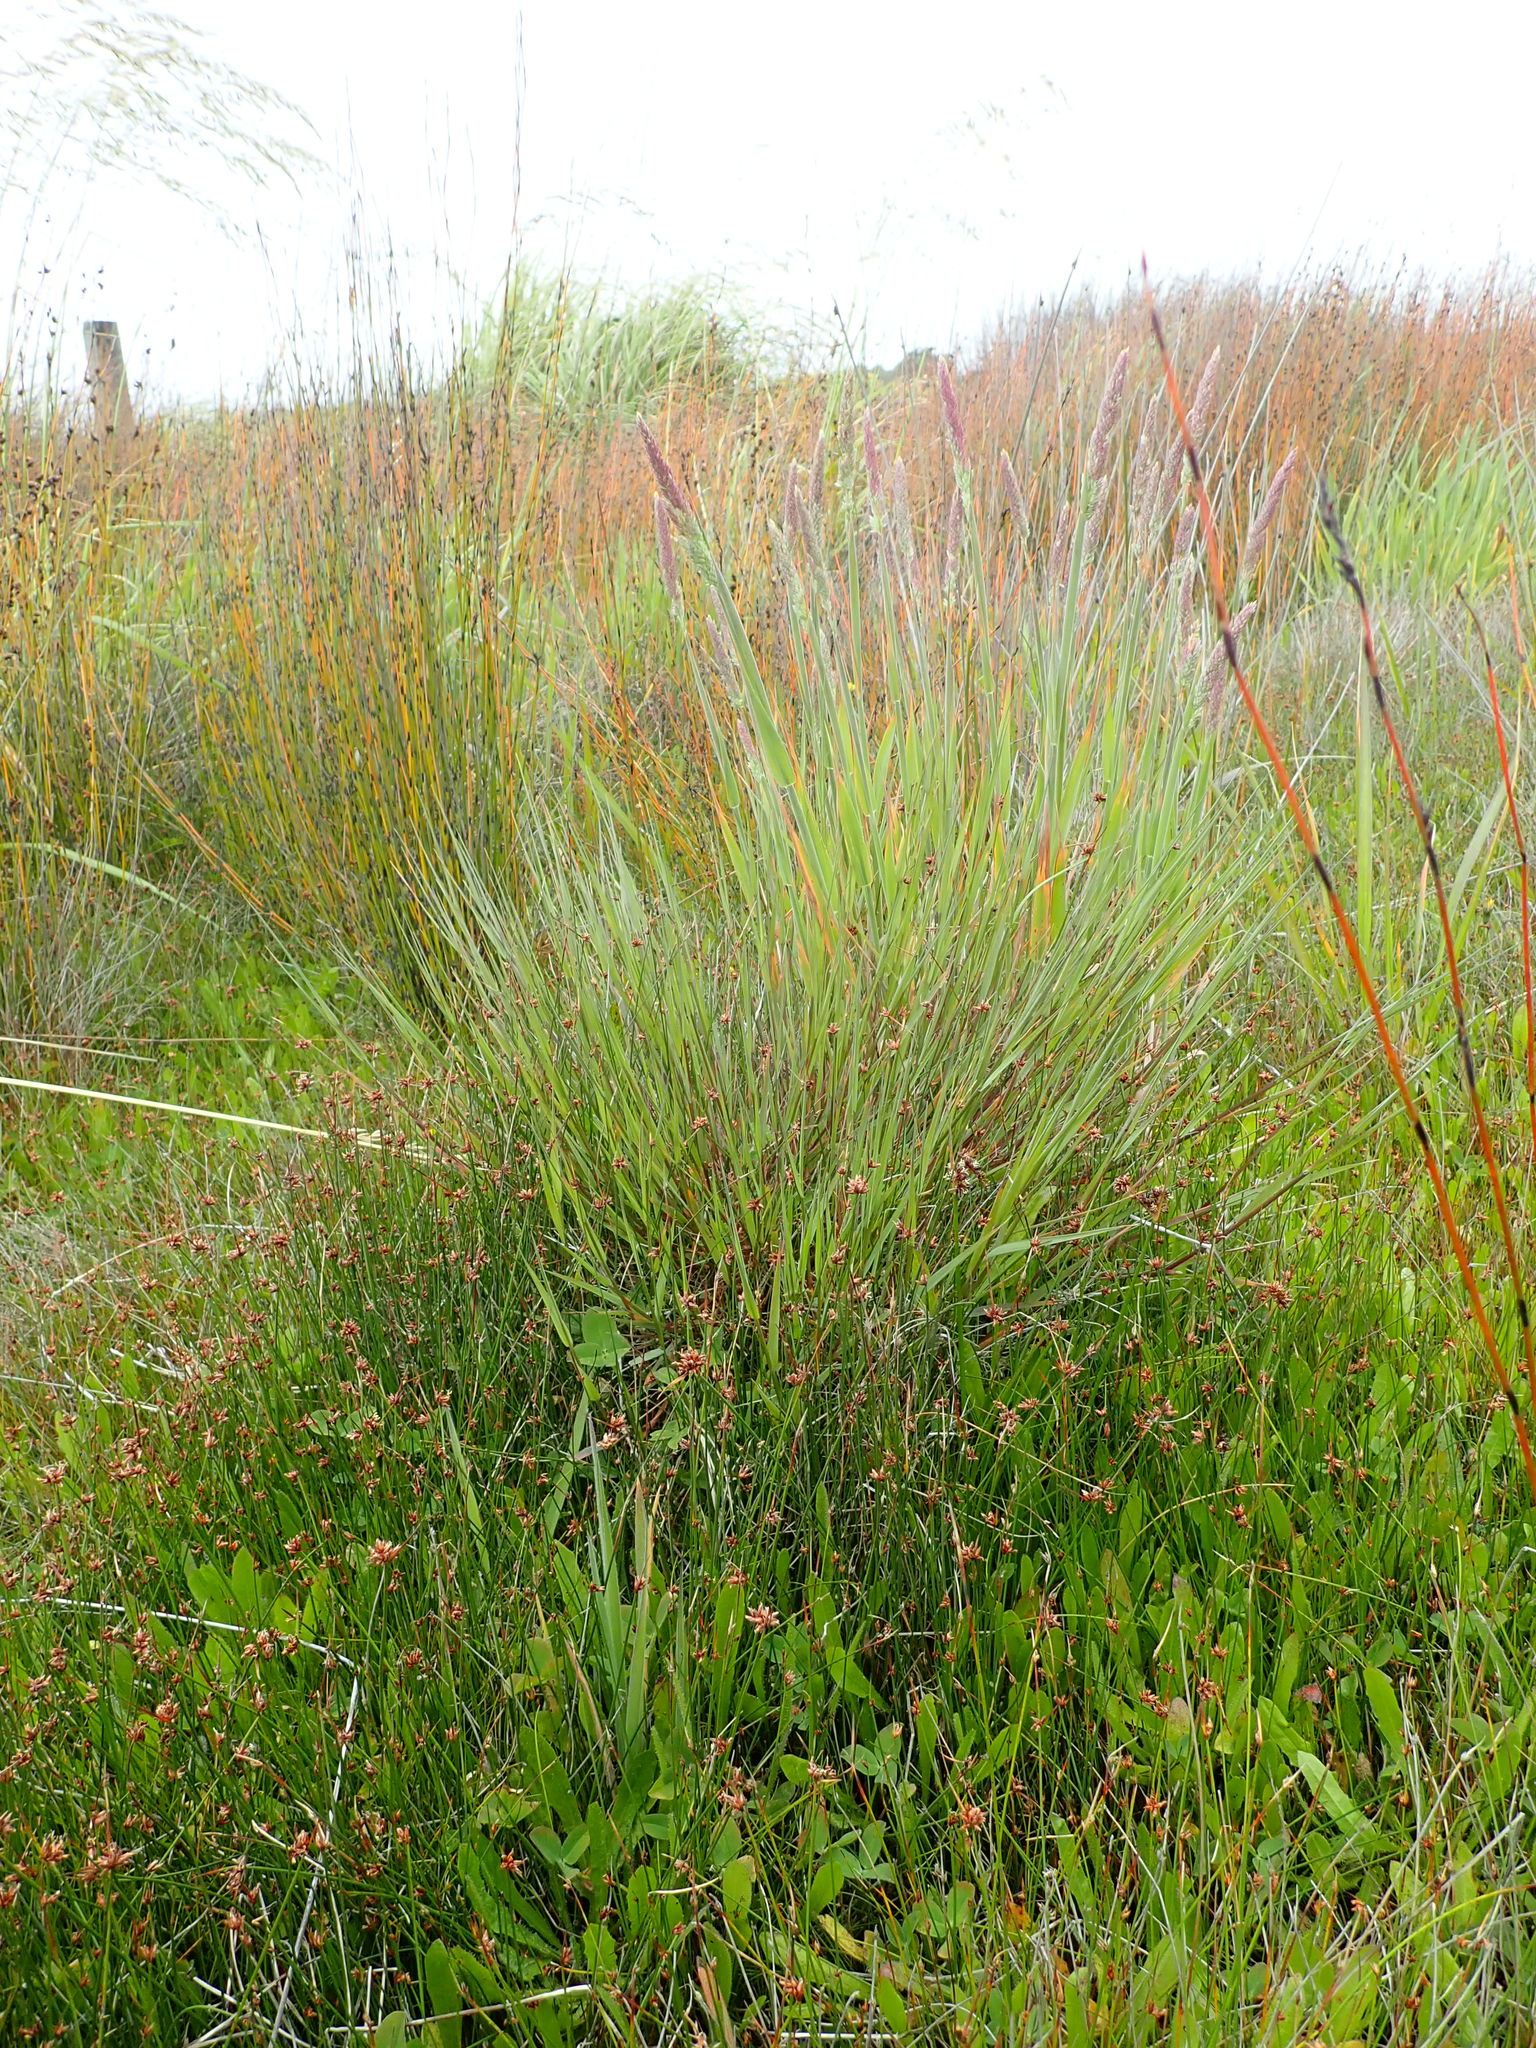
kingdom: Plantae
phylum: Tracheophyta
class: Liliopsida
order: Poales
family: Poaceae
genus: Holcus
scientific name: Holcus lanatus
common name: Yorkshire-fog
